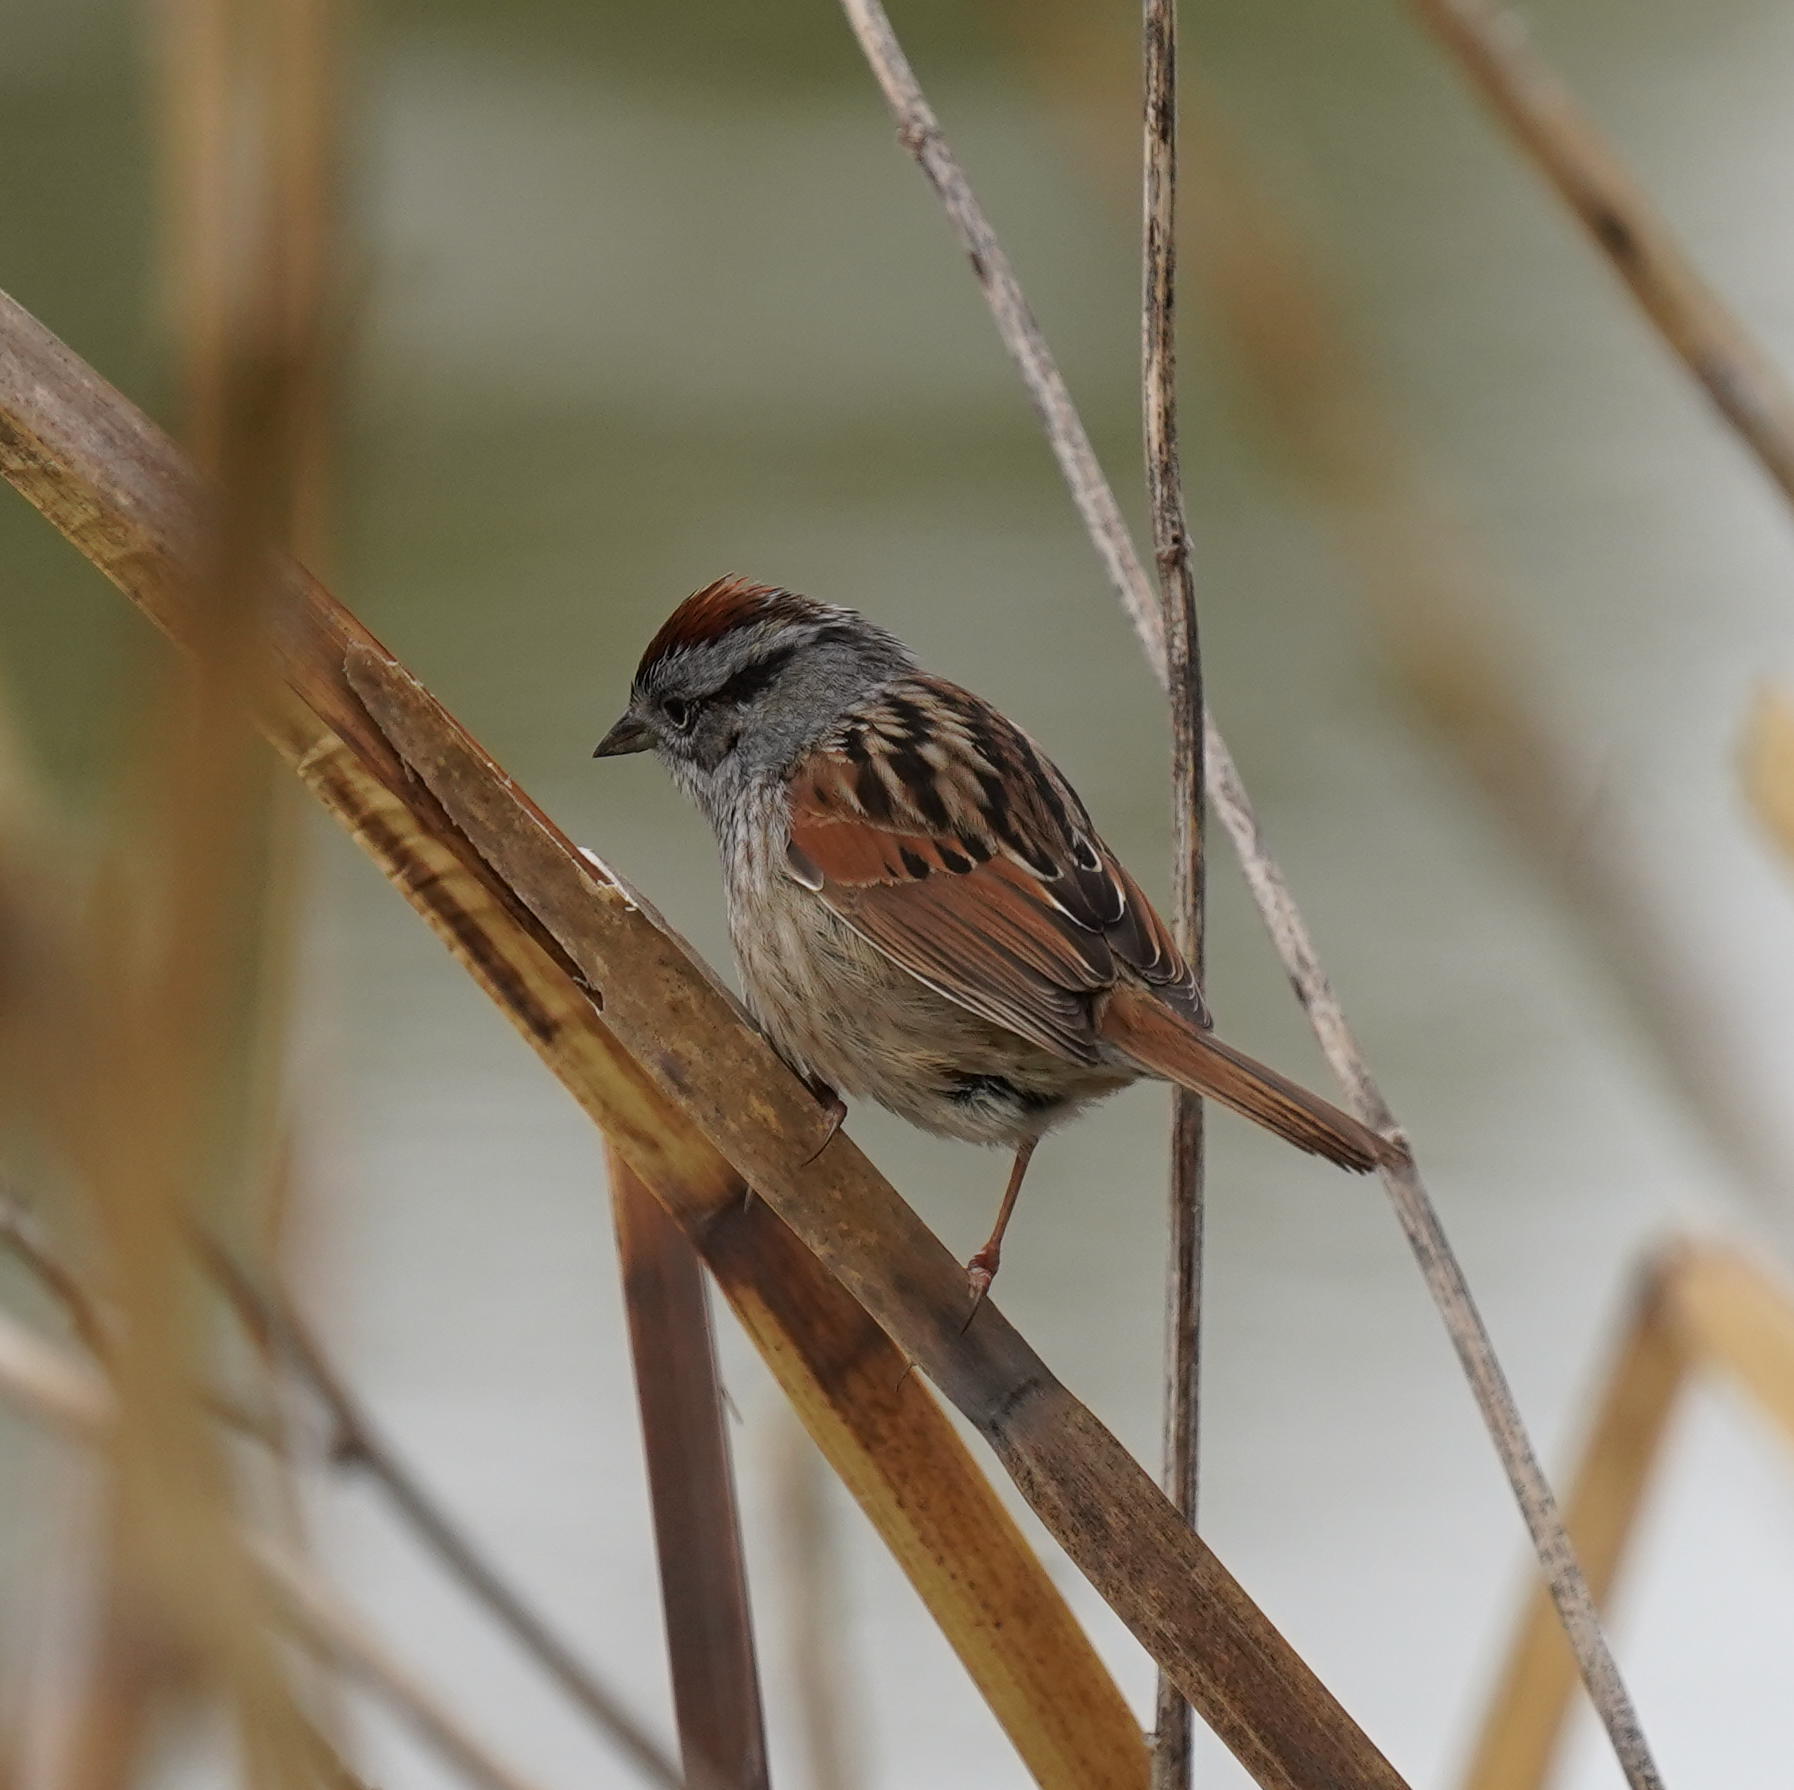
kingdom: Animalia
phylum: Chordata
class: Aves
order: Passeriformes
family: Passerellidae
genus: Melospiza
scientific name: Melospiza georgiana
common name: Swamp sparrow
